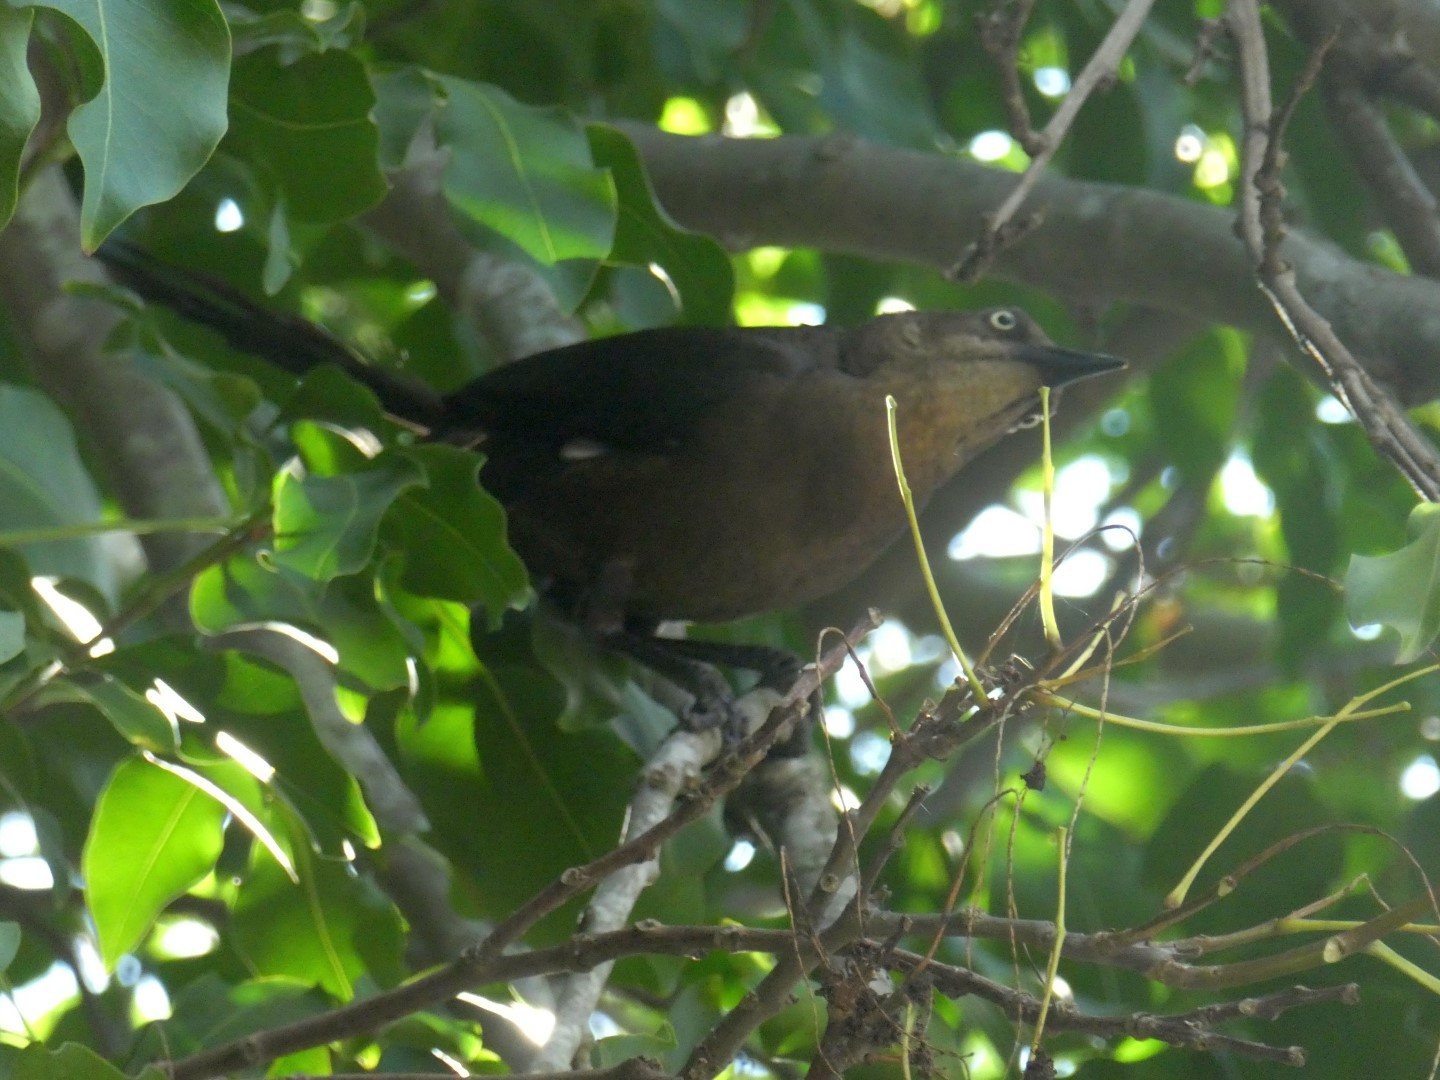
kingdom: Animalia
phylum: Chordata
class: Aves
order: Passeriformes
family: Icteridae
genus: Quiscalus
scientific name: Quiscalus mexicanus
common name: Great-tailed grackle
